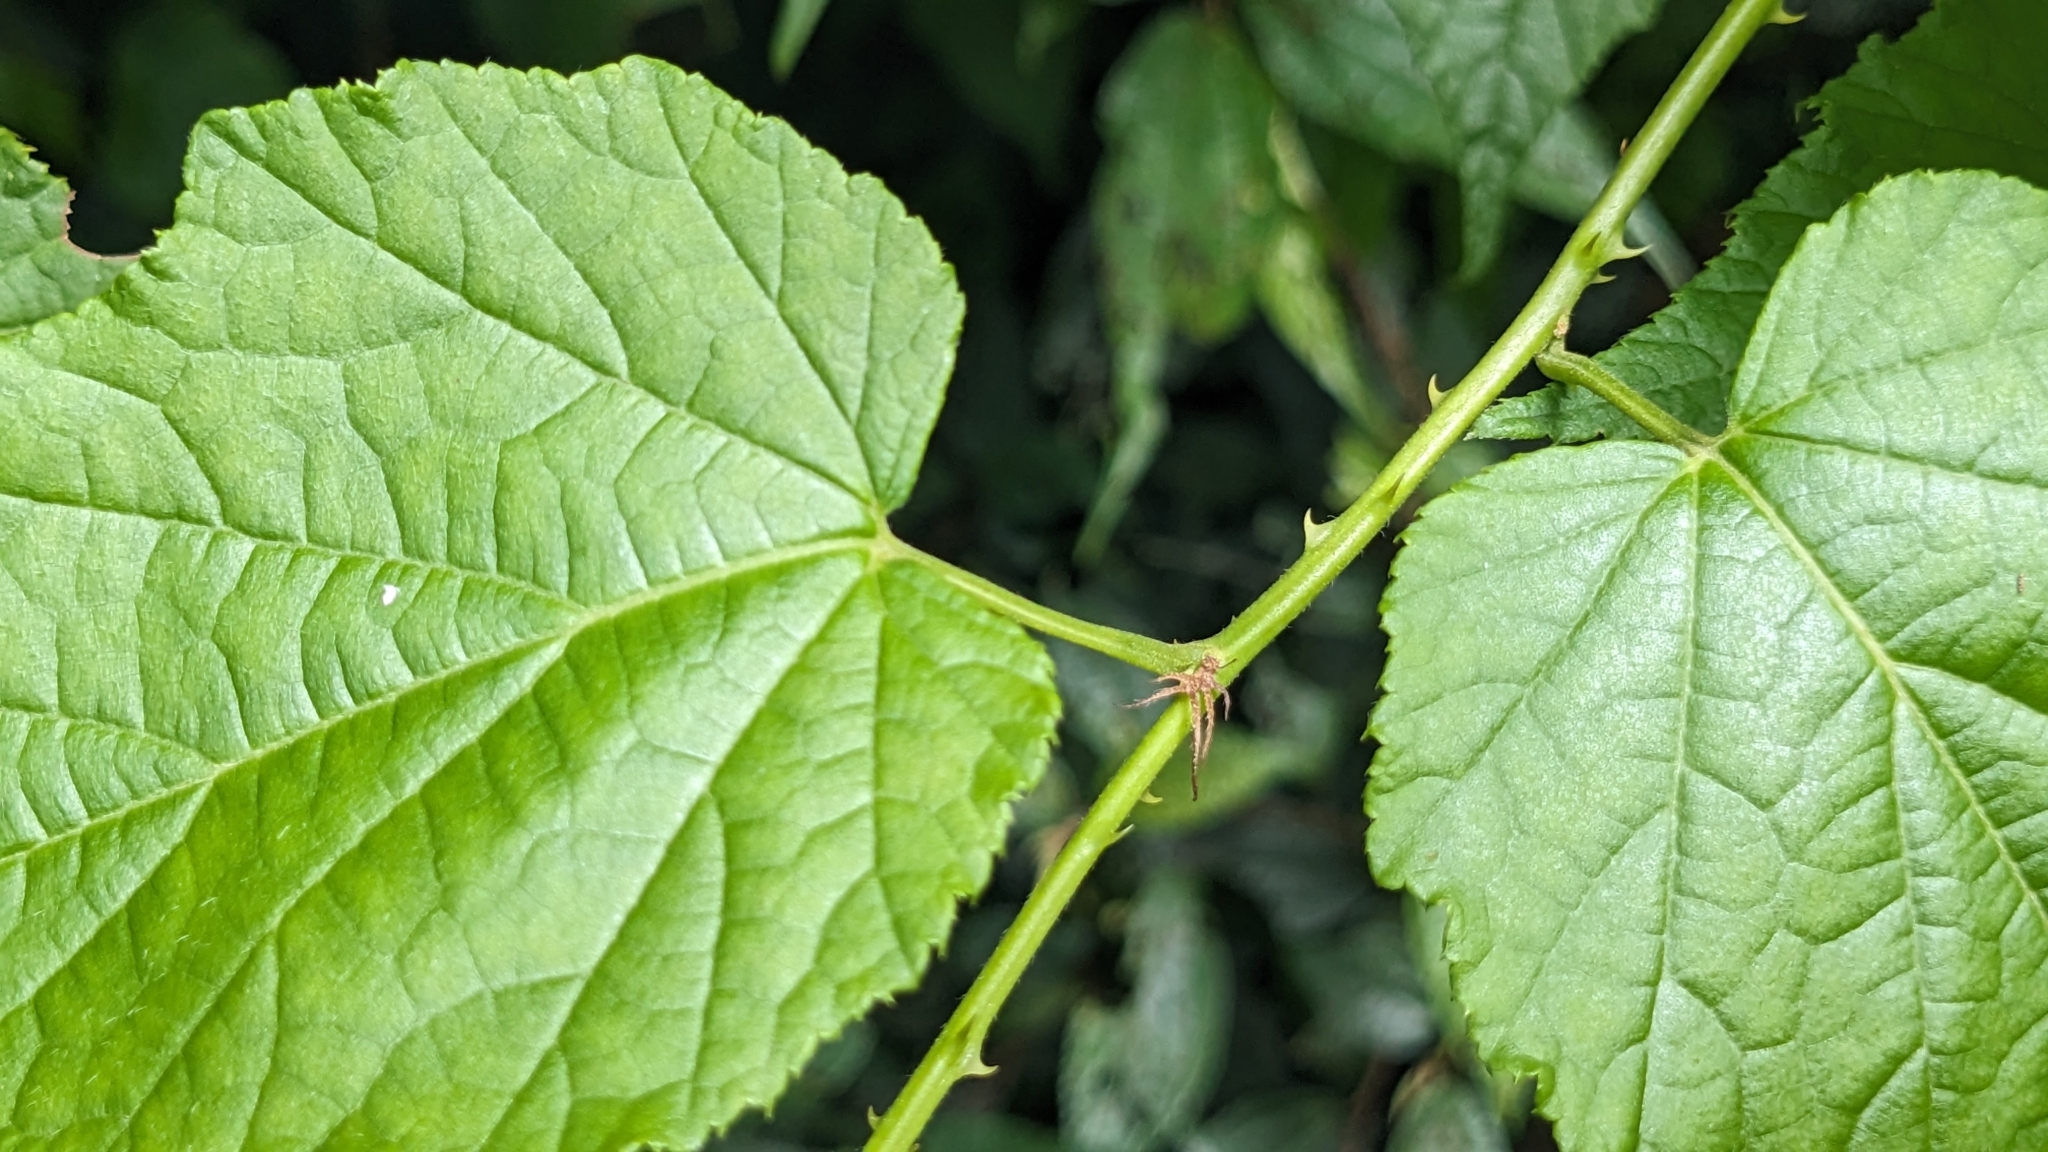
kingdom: Plantae
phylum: Tracheophyta
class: Magnoliopsida
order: Rosales
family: Rosaceae
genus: Rubus
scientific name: Rubus lambertianus
